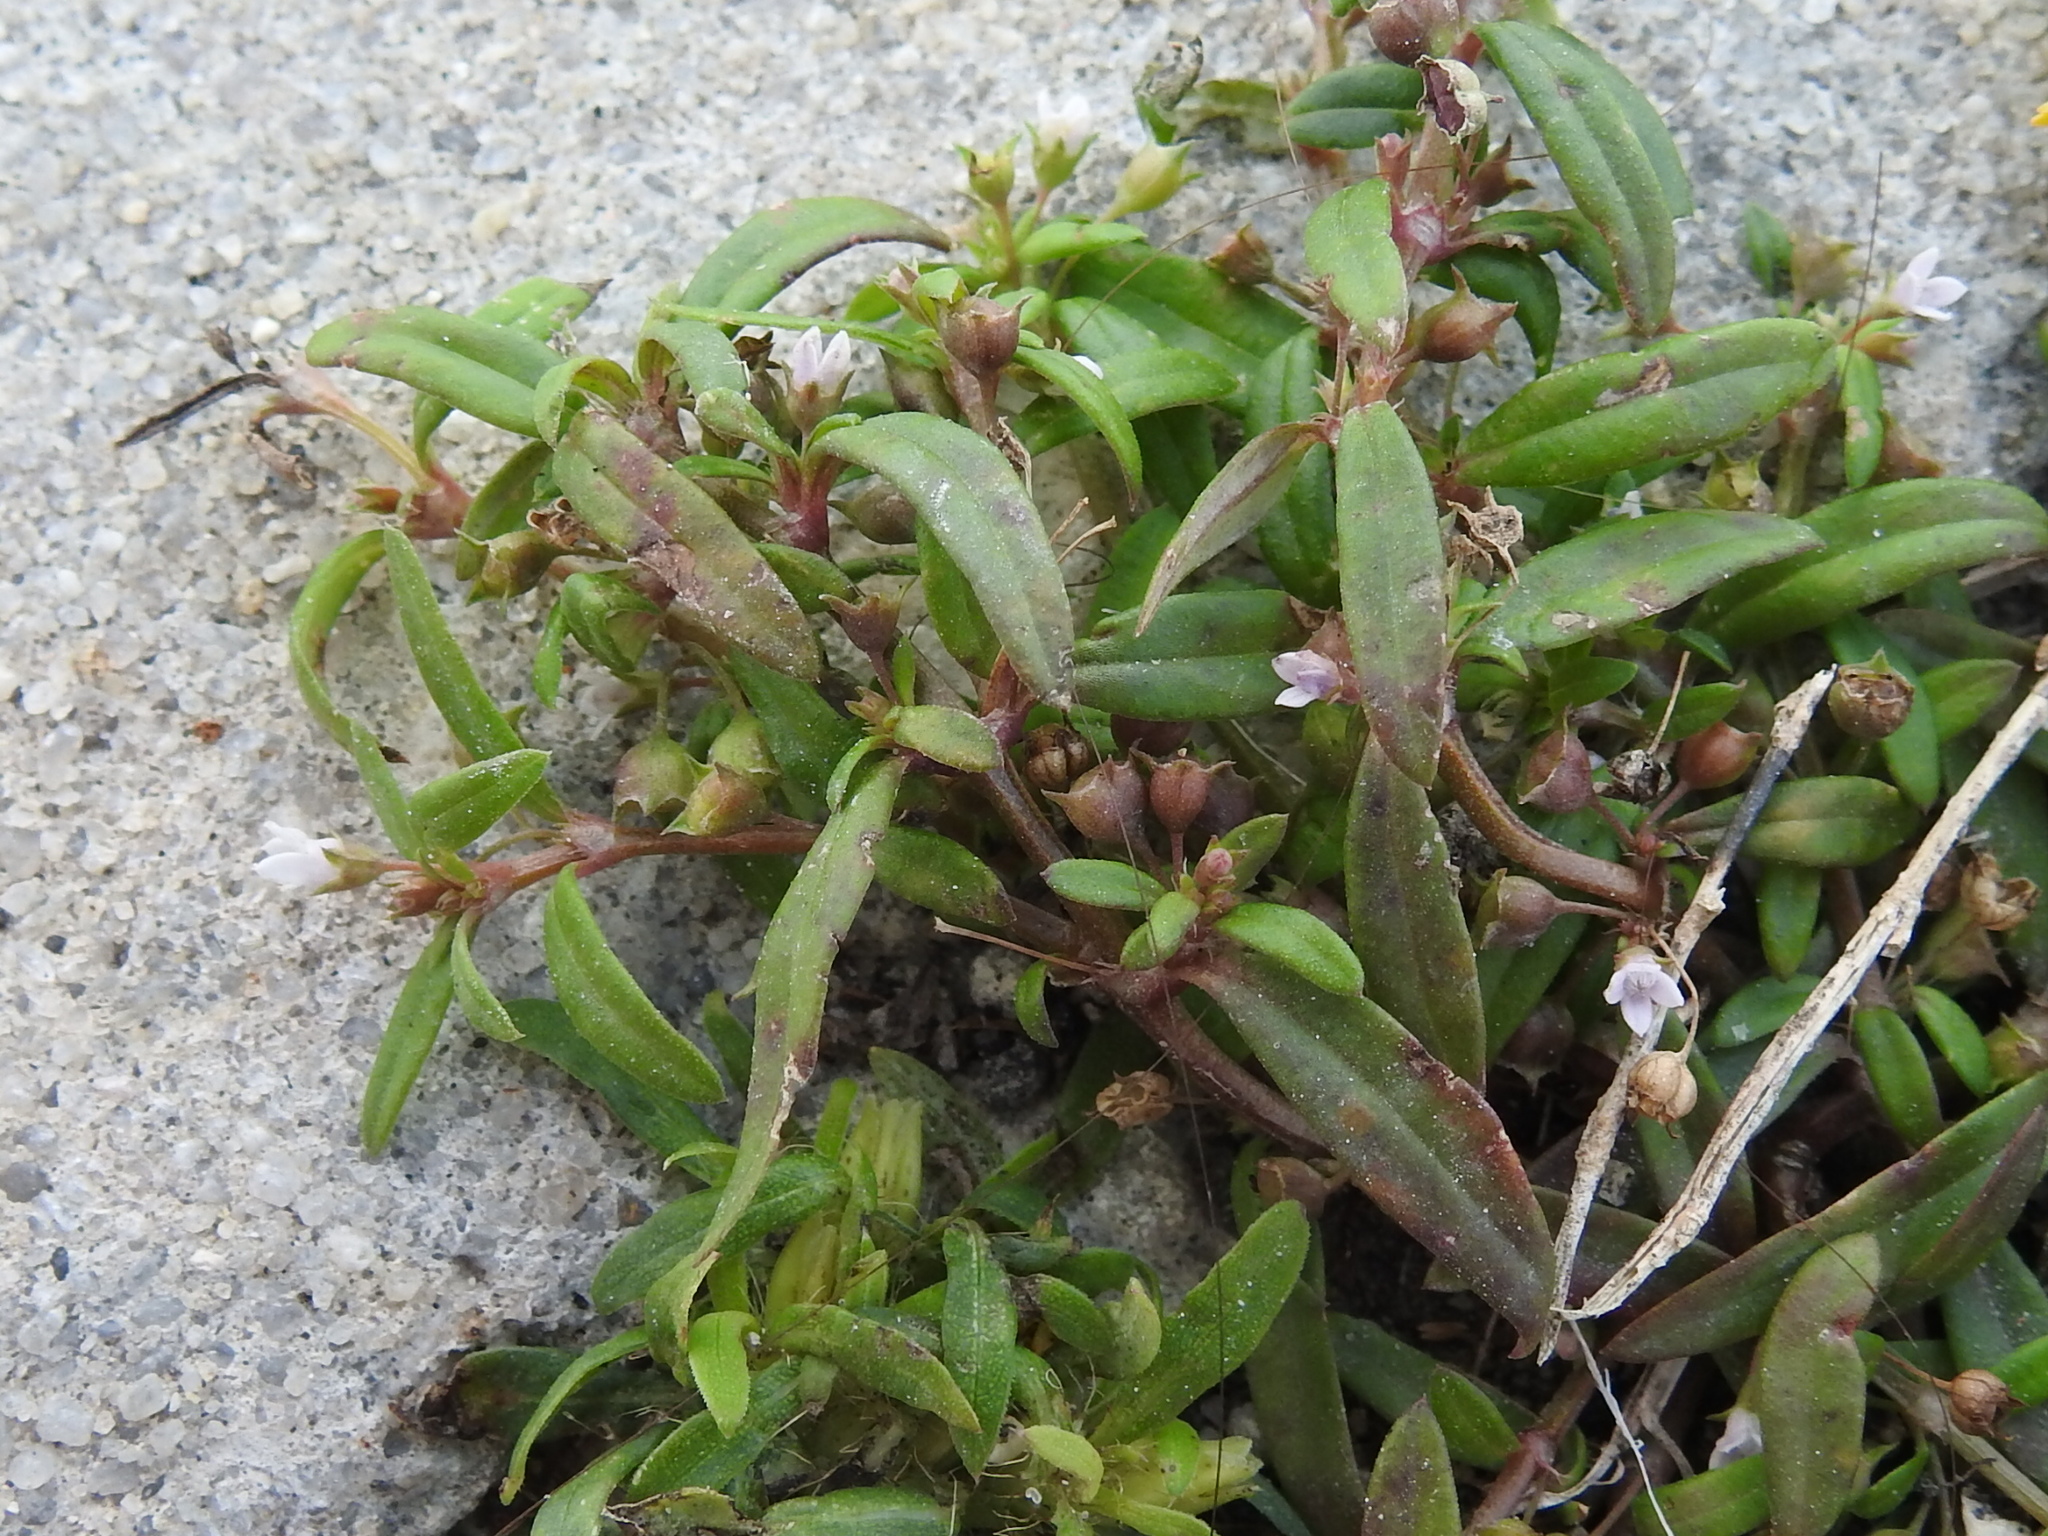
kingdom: Plantae
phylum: Tracheophyta
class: Magnoliopsida
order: Gentianales
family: Rubiaceae
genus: Oldenlandia
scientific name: Oldenlandia corymbosa
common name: Flat-top mille graines
